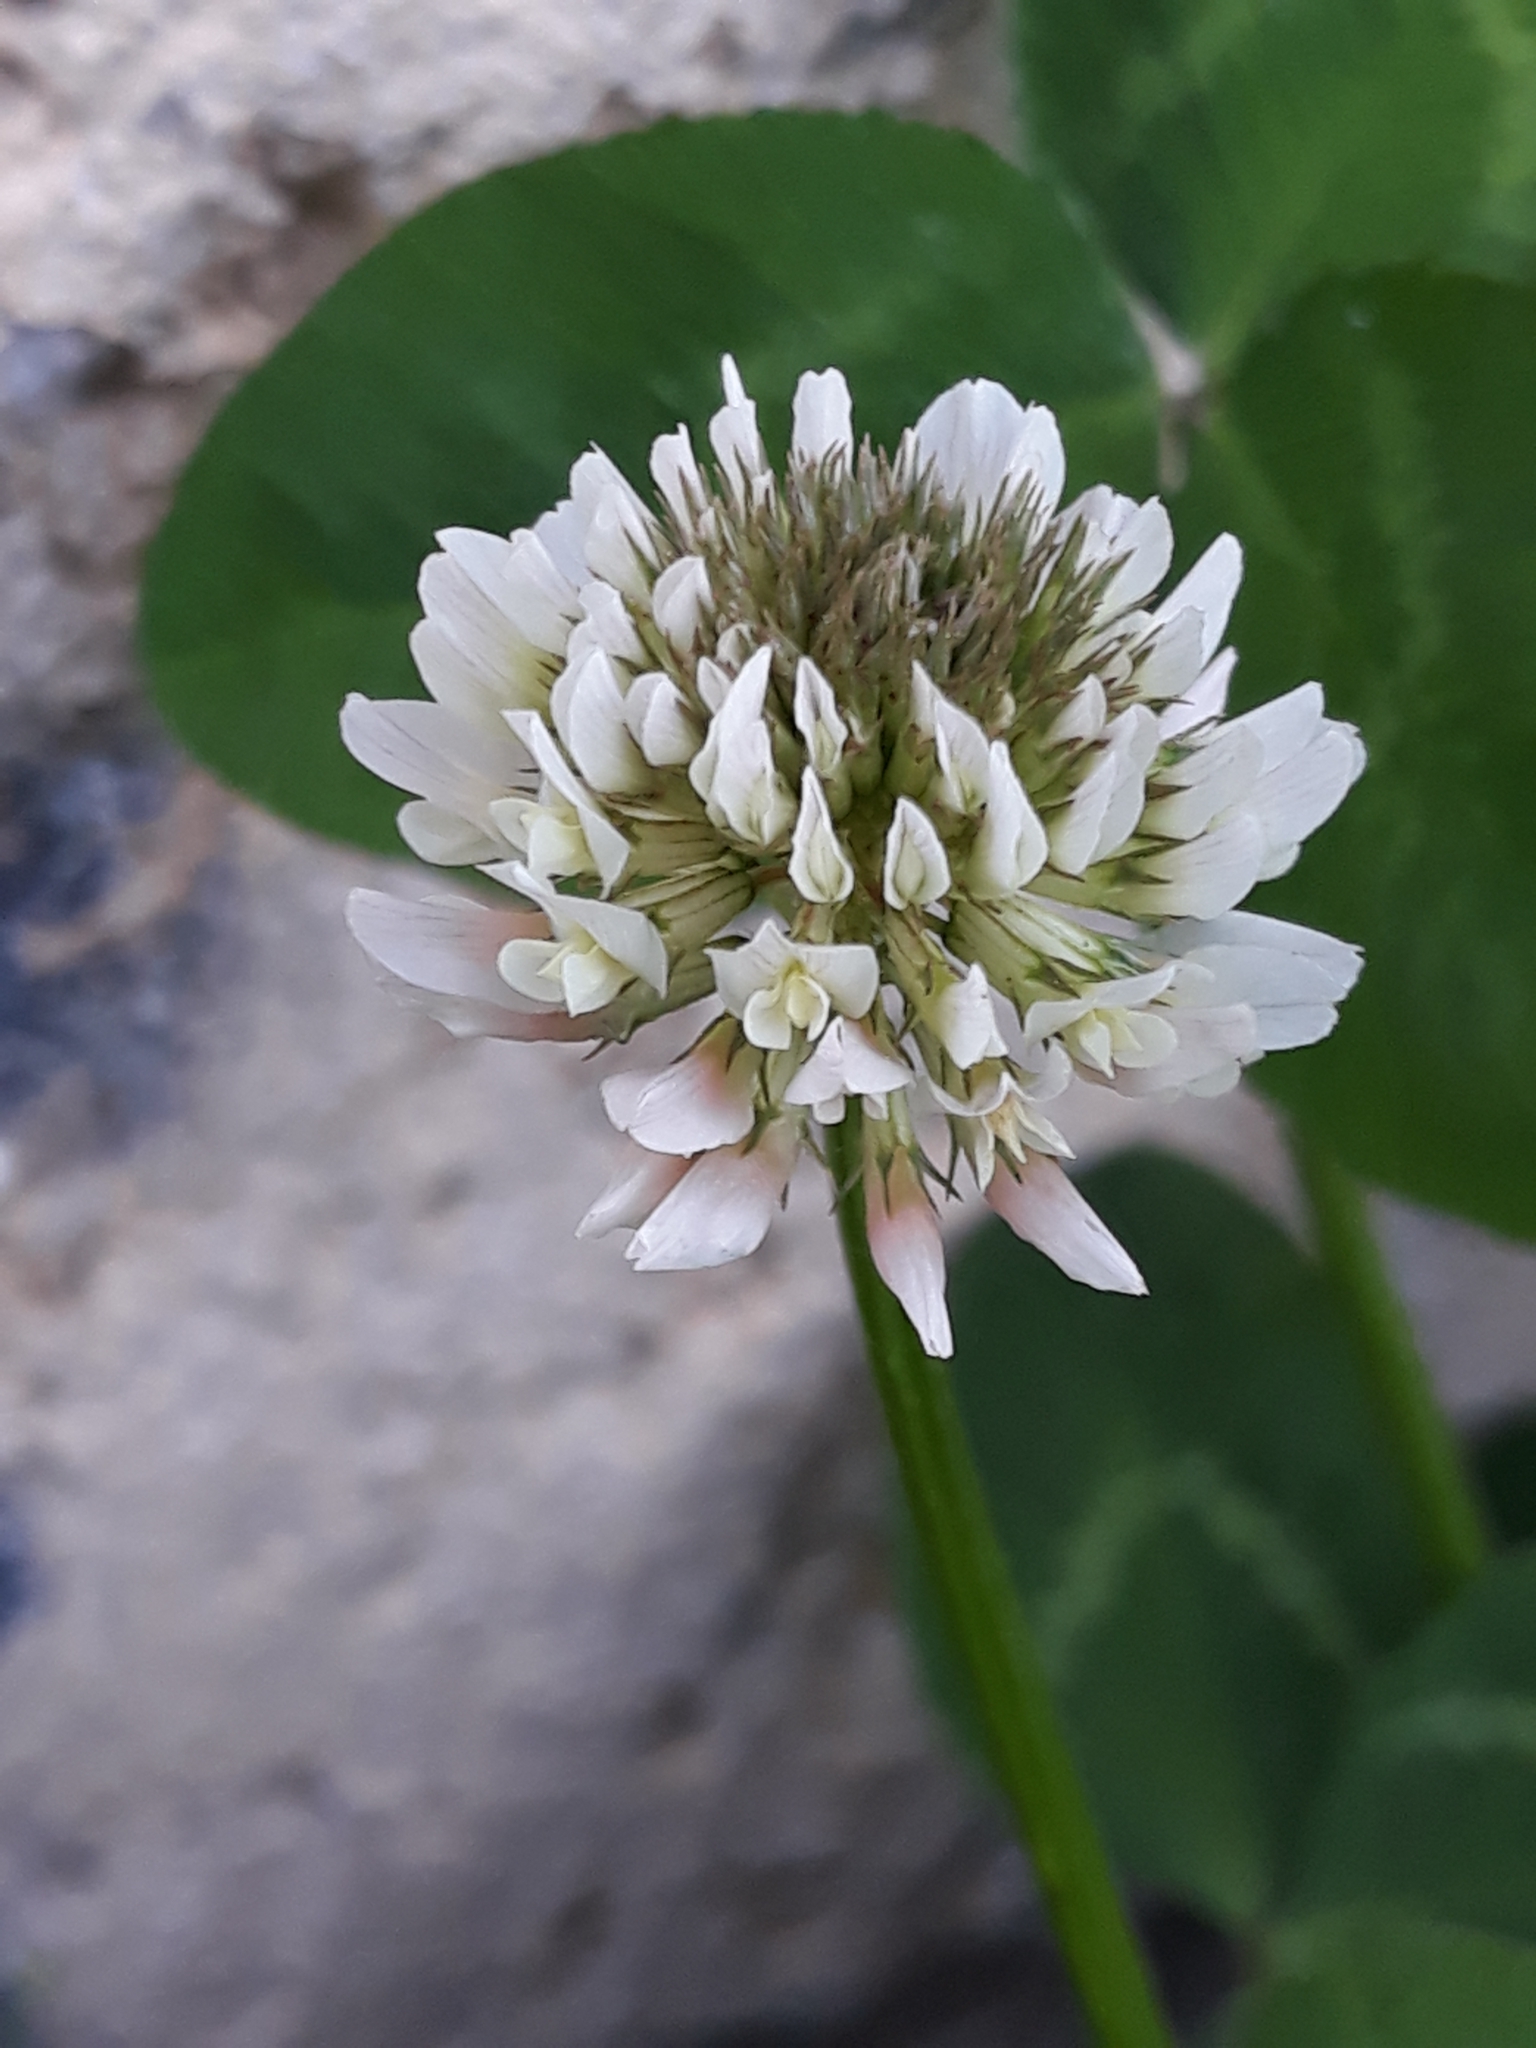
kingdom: Plantae
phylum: Tracheophyta
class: Magnoliopsida
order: Fabales
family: Fabaceae
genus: Trifolium
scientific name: Trifolium repens
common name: White clover
